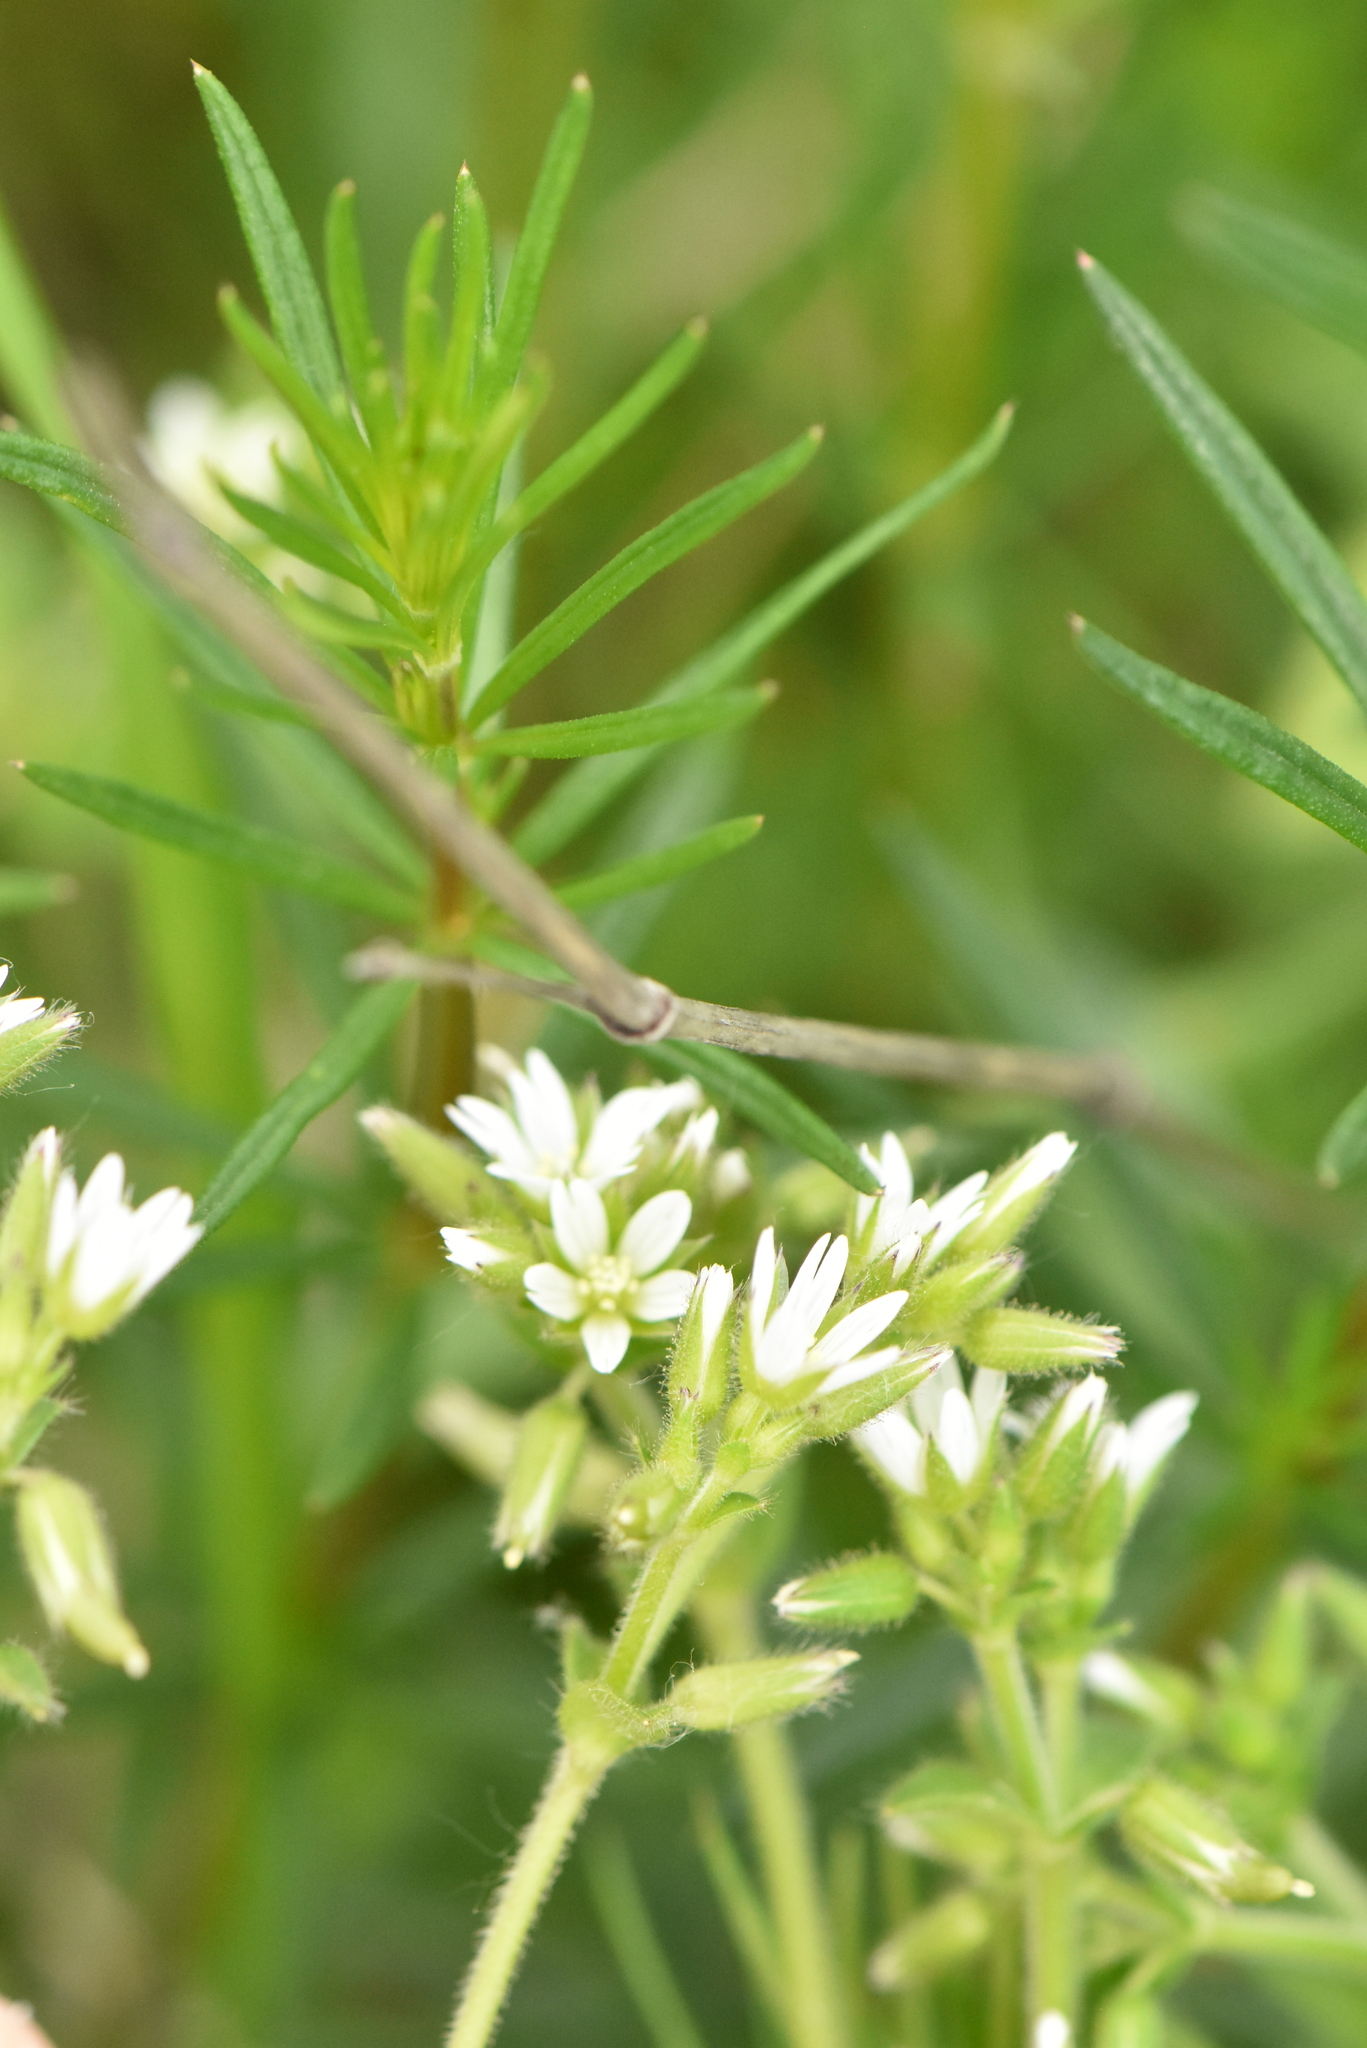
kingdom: Plantae
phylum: Tracheophyta
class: Magnoliopsida
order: Caryophyllales
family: Caryophyllaceae
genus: Cerastium
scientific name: Cerastium glomeratum
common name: Sticky chickweed
